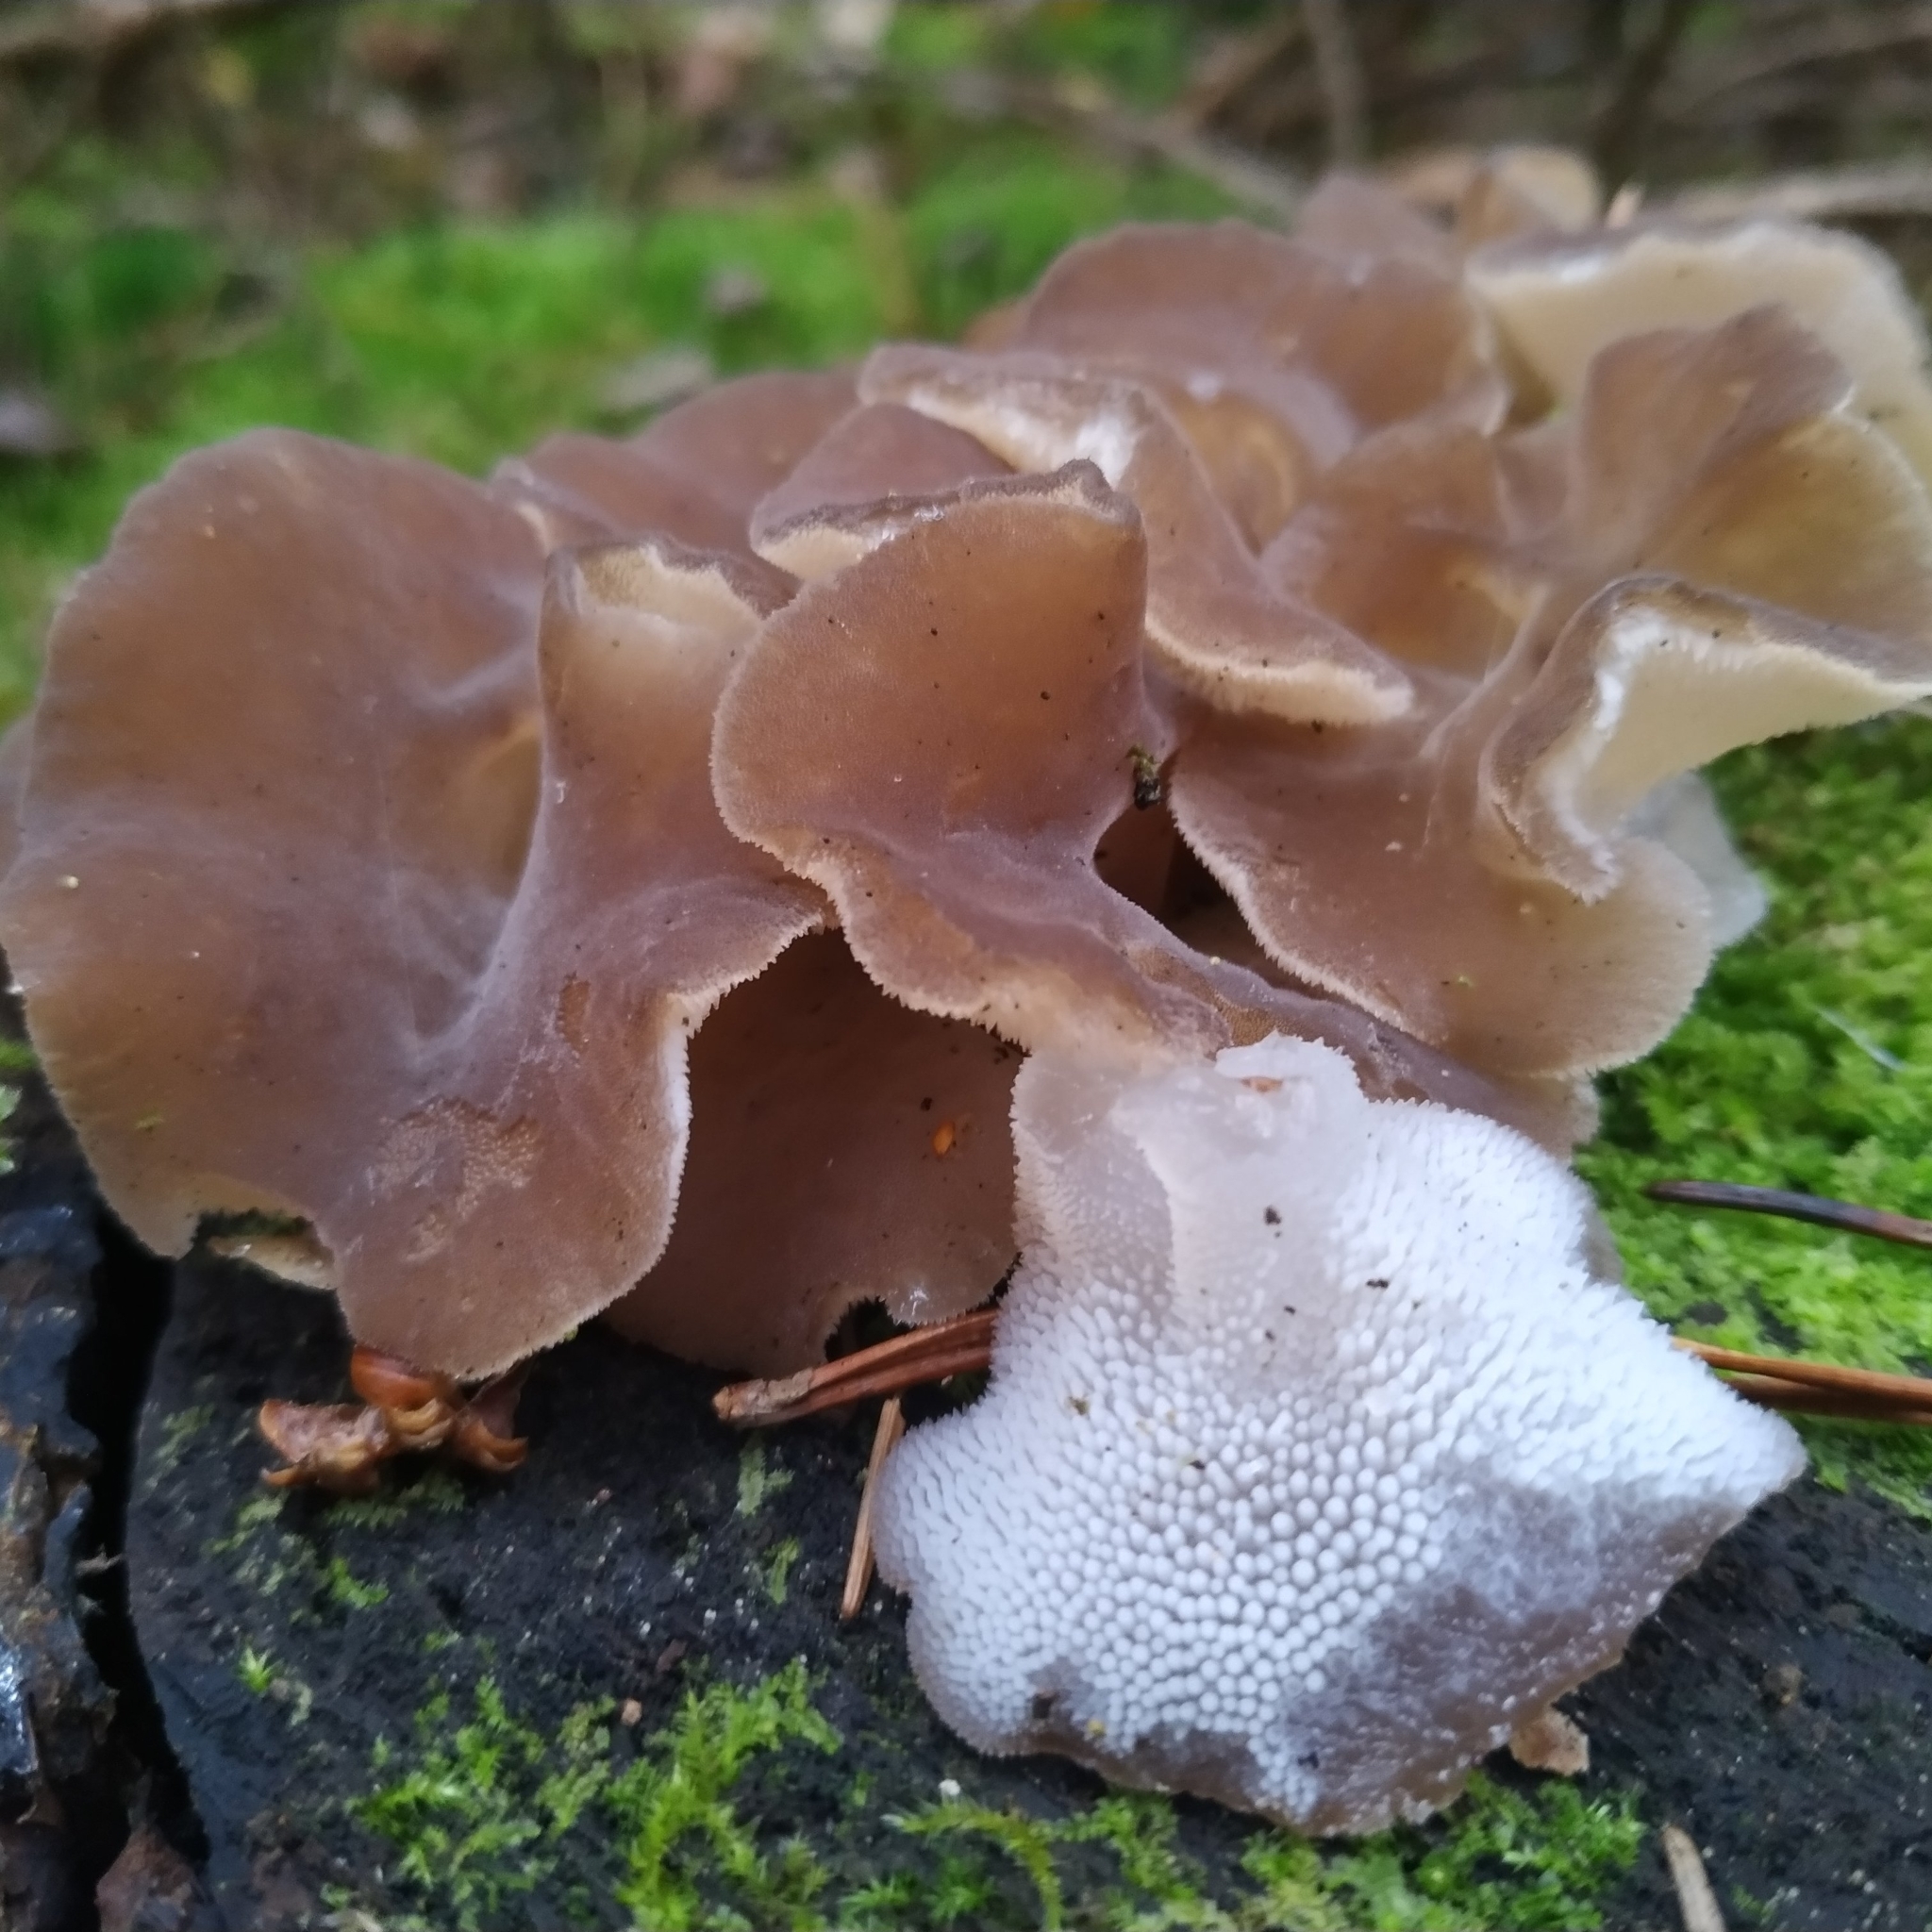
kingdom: Fungi
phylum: Basidiomycota
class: Agaricomycetes
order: Auriculariales
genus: Pseudohydnum
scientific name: Pseudohydnum gelatinosum
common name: Jelly tongue
